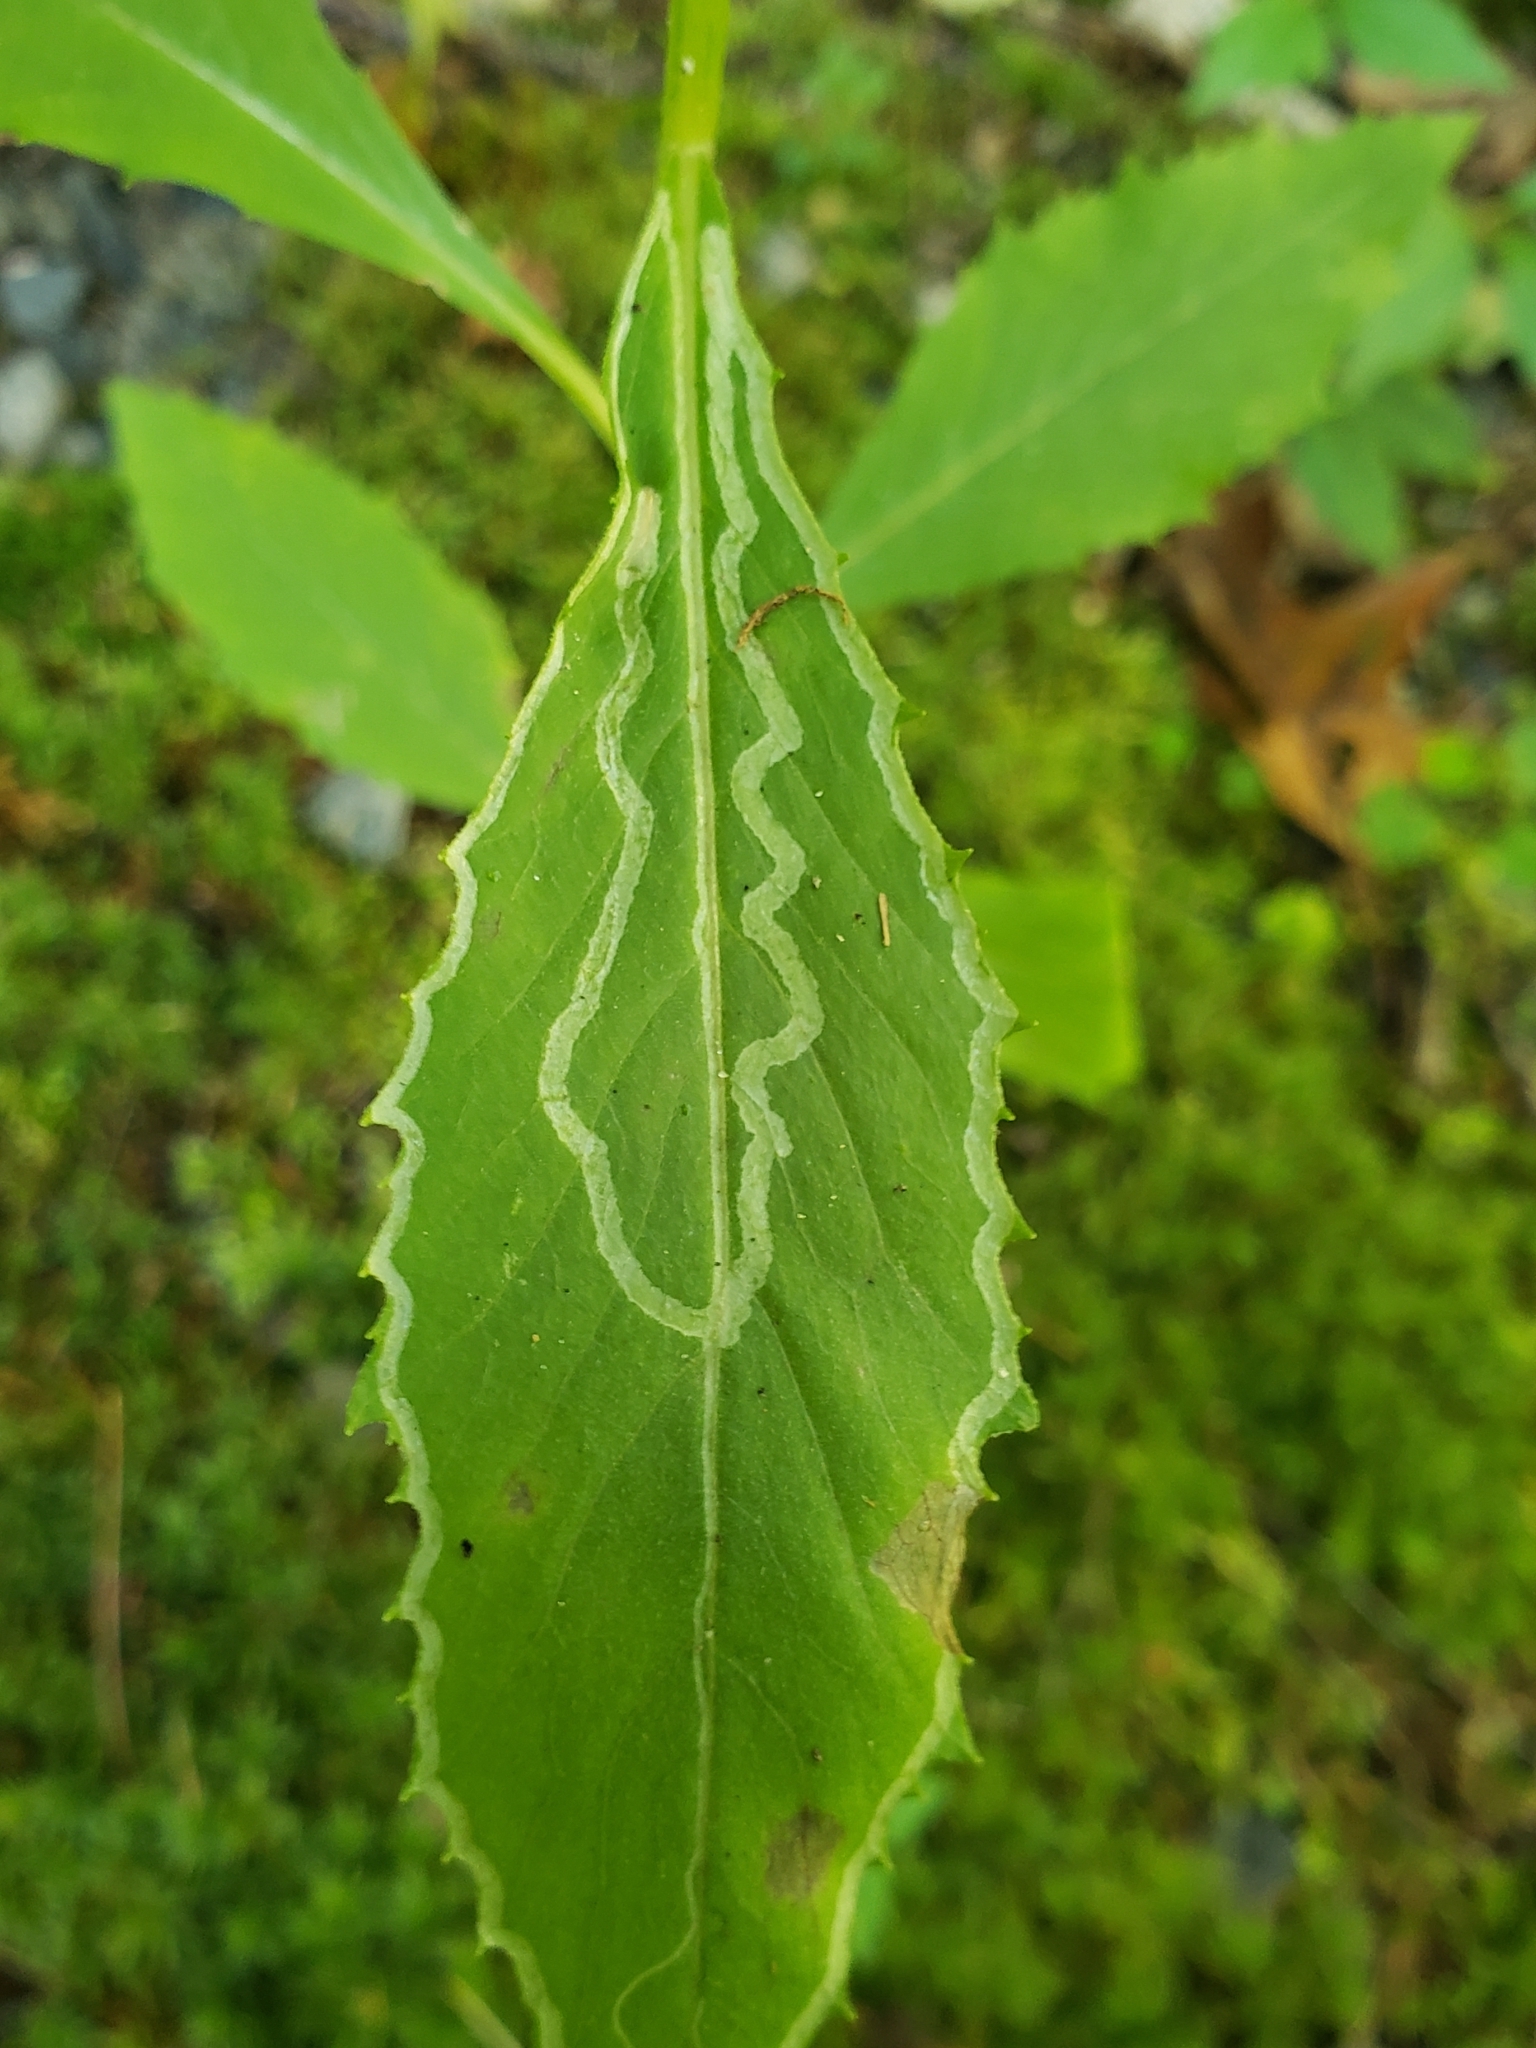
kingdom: Animalia
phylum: Arthropoda
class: Insecta
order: Lepidoptera
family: Gracillariidae
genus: Phyllocnistis
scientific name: Phyllocnistis insignis
